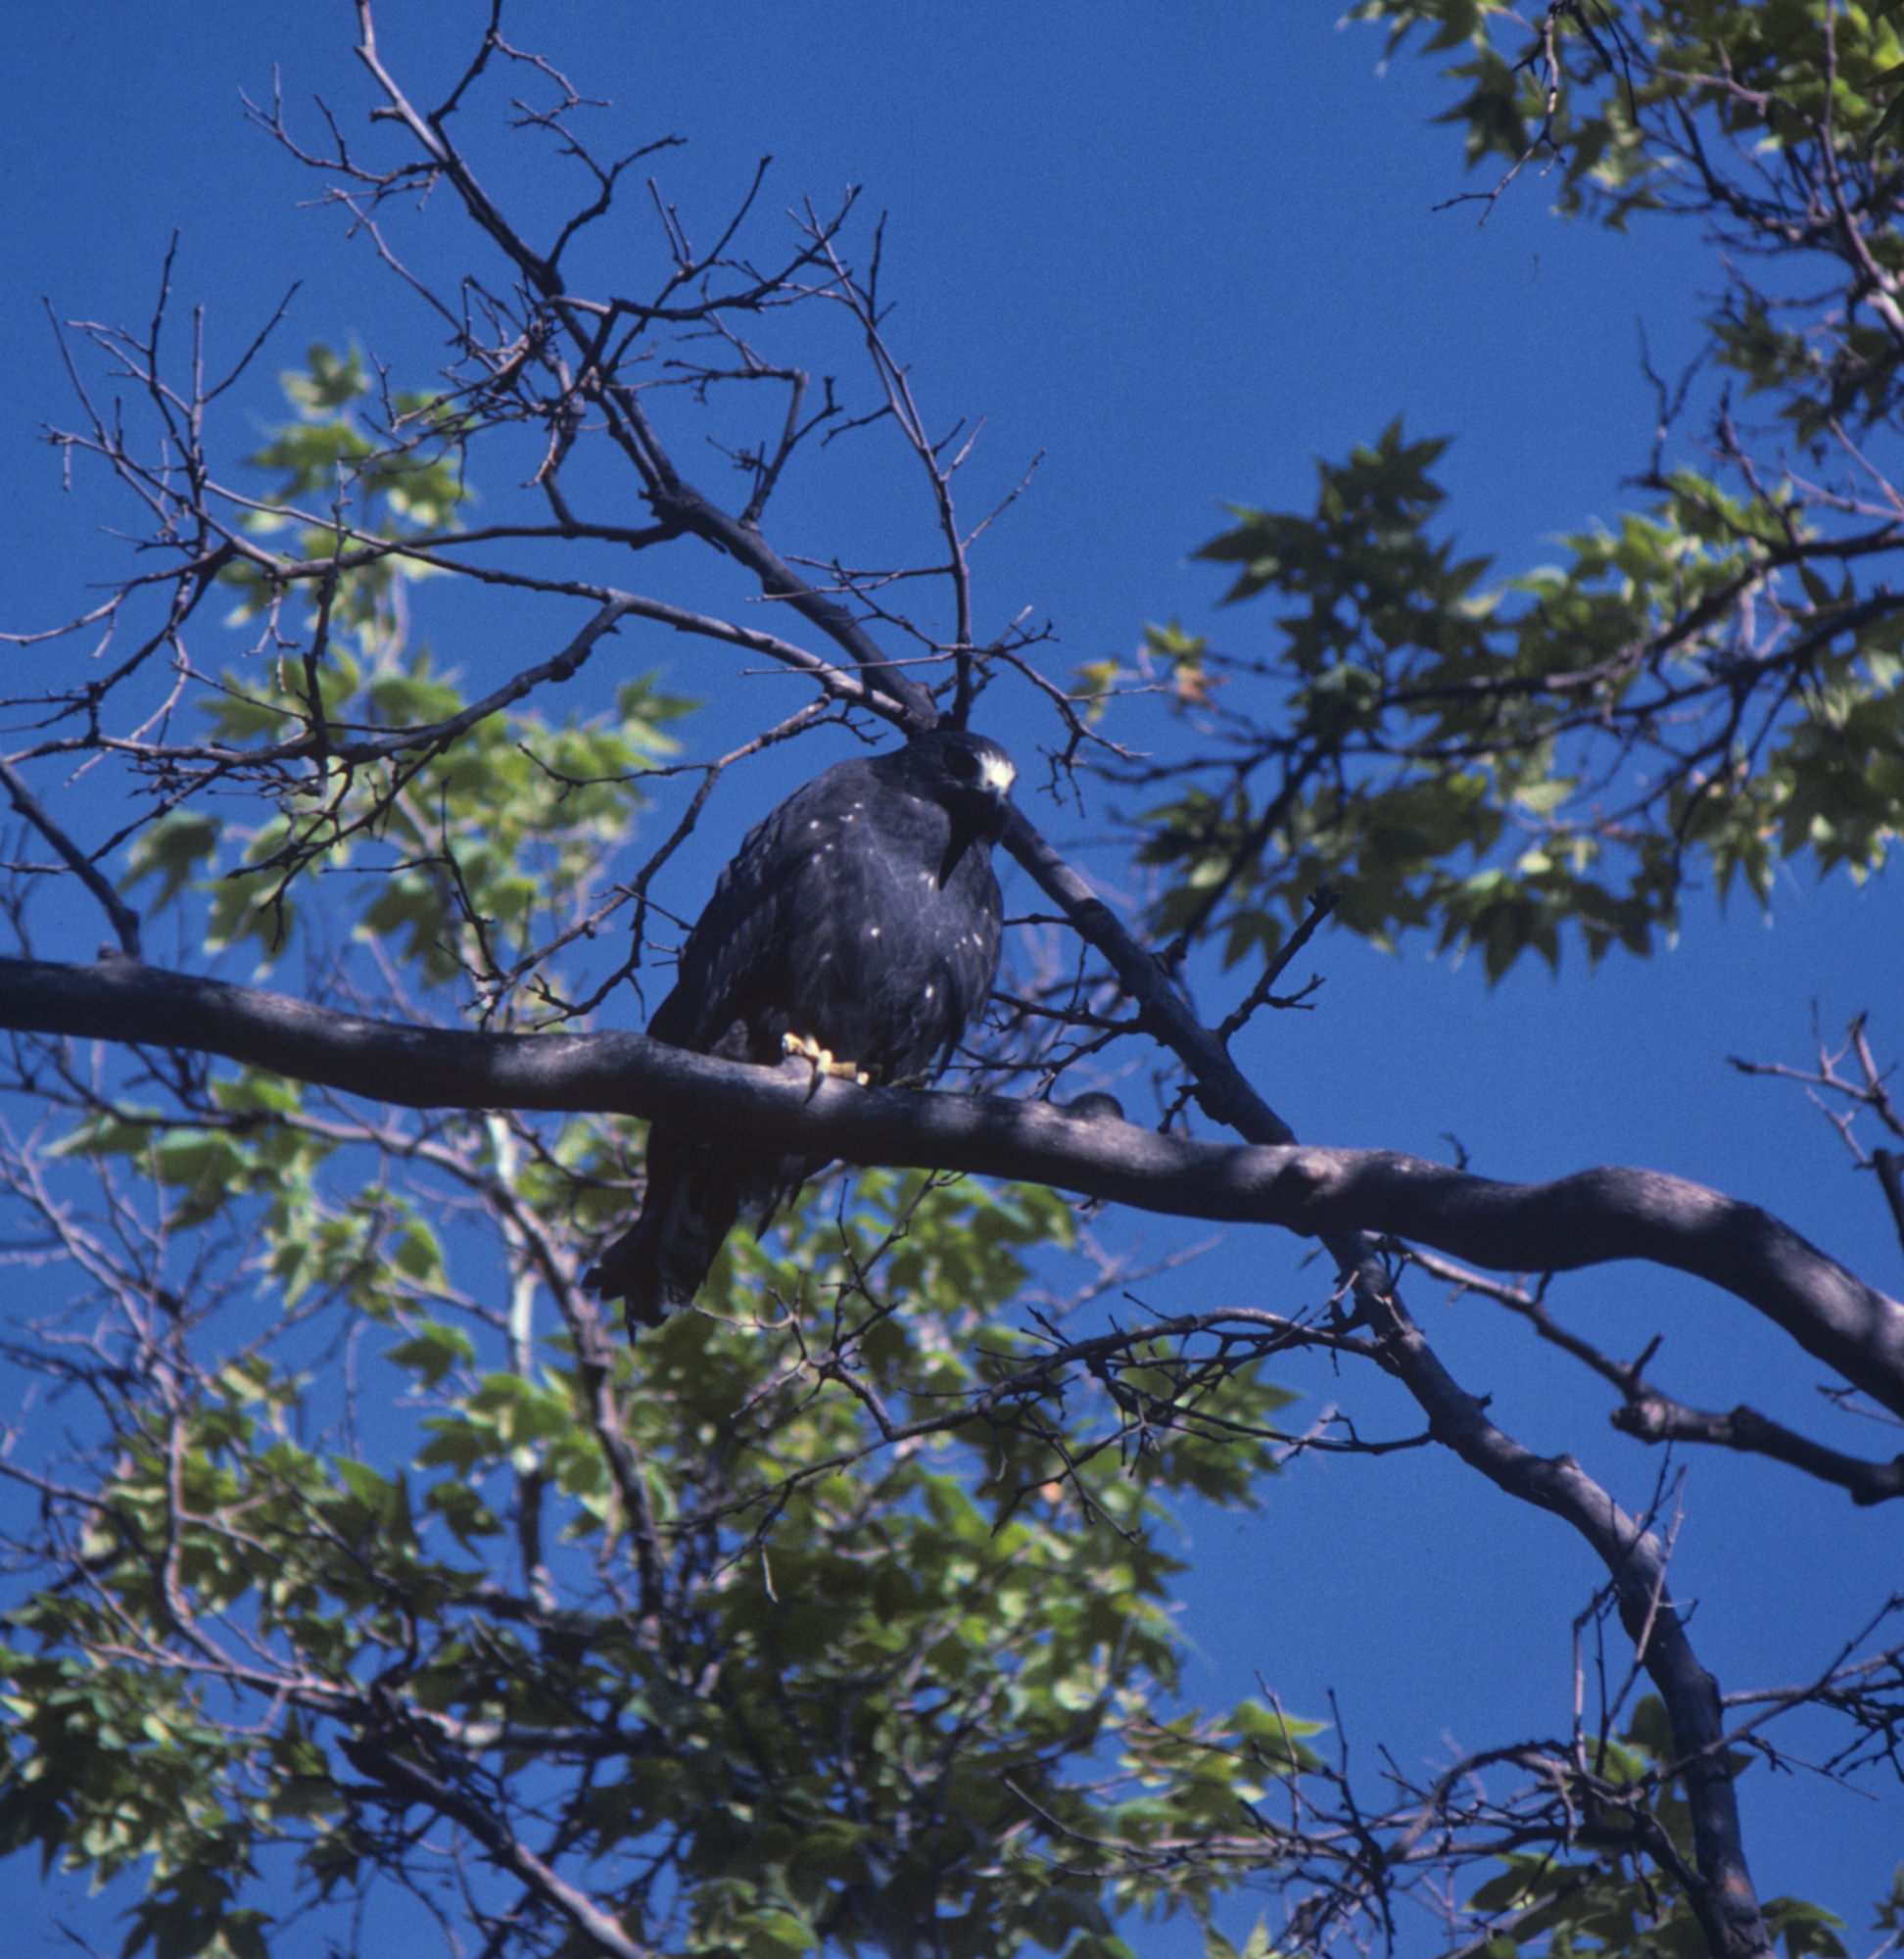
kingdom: Animalia
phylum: Chordata
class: Aves
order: Accipitriformes
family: Accipitridae
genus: Buteo
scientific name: Buteo albonotatus
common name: Zone-tailed hawk
